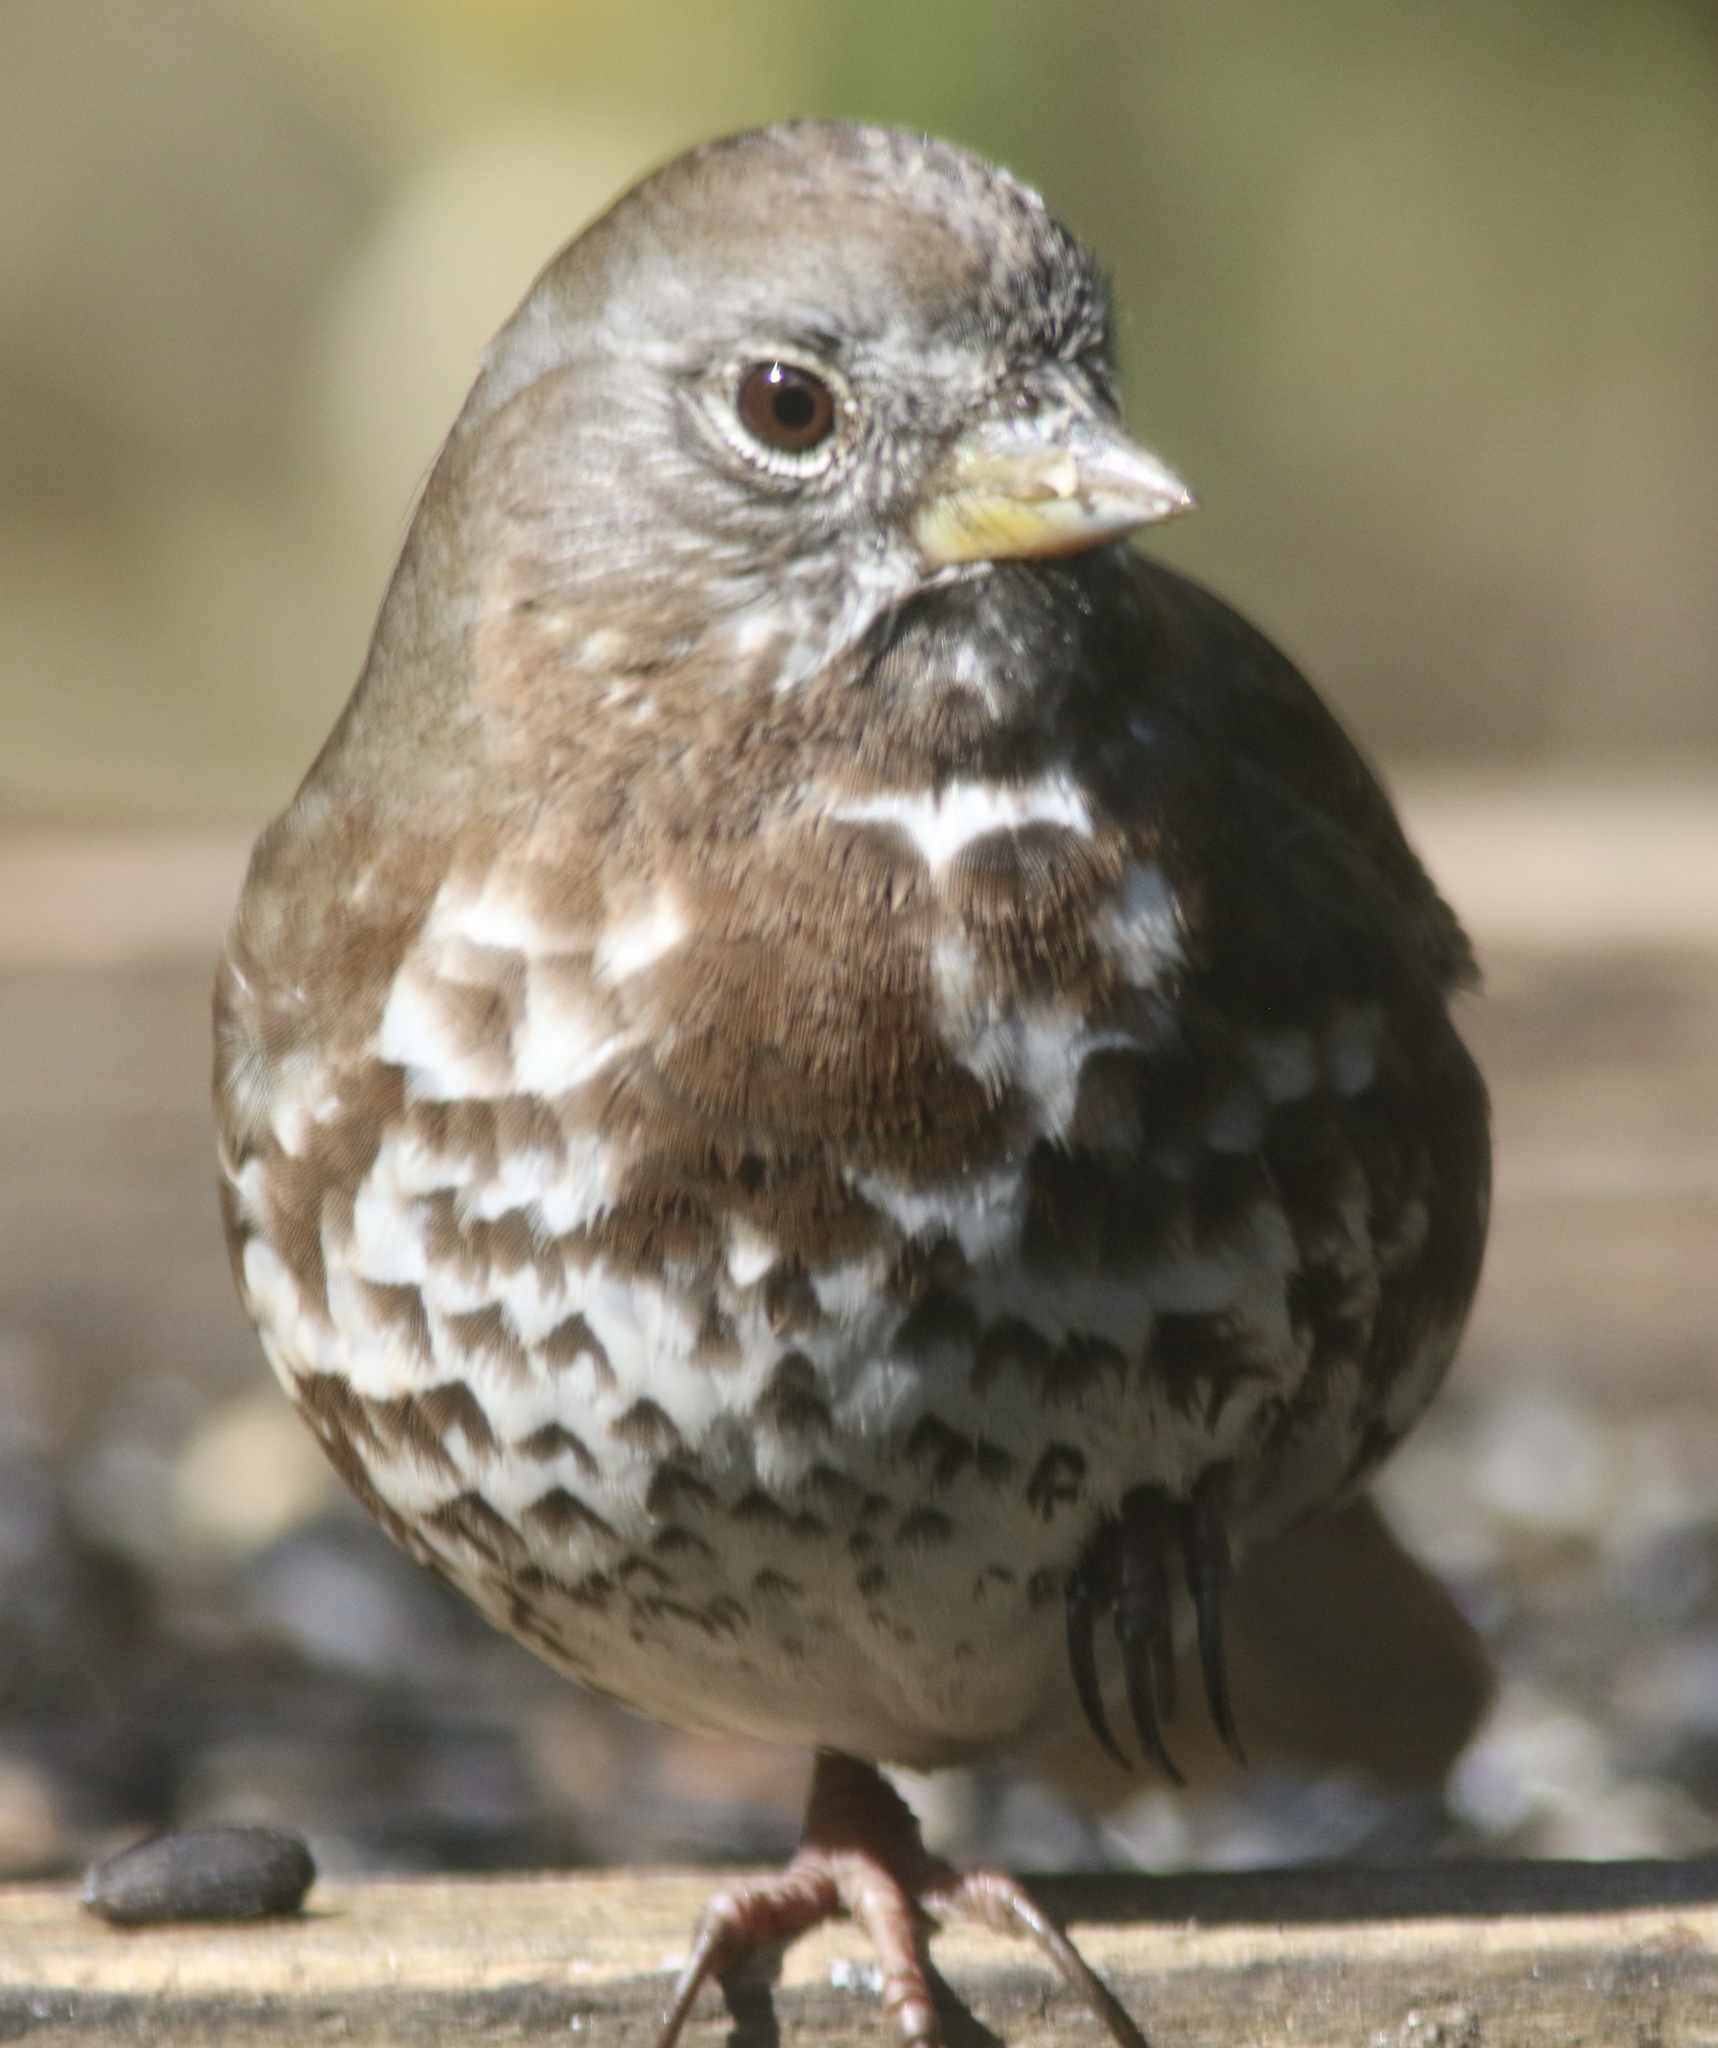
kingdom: Animalia
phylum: Chordata
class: Aves
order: Passeriformes
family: Passerellidae
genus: Passerella
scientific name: Passerella iliaca
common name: Fox sparrow
